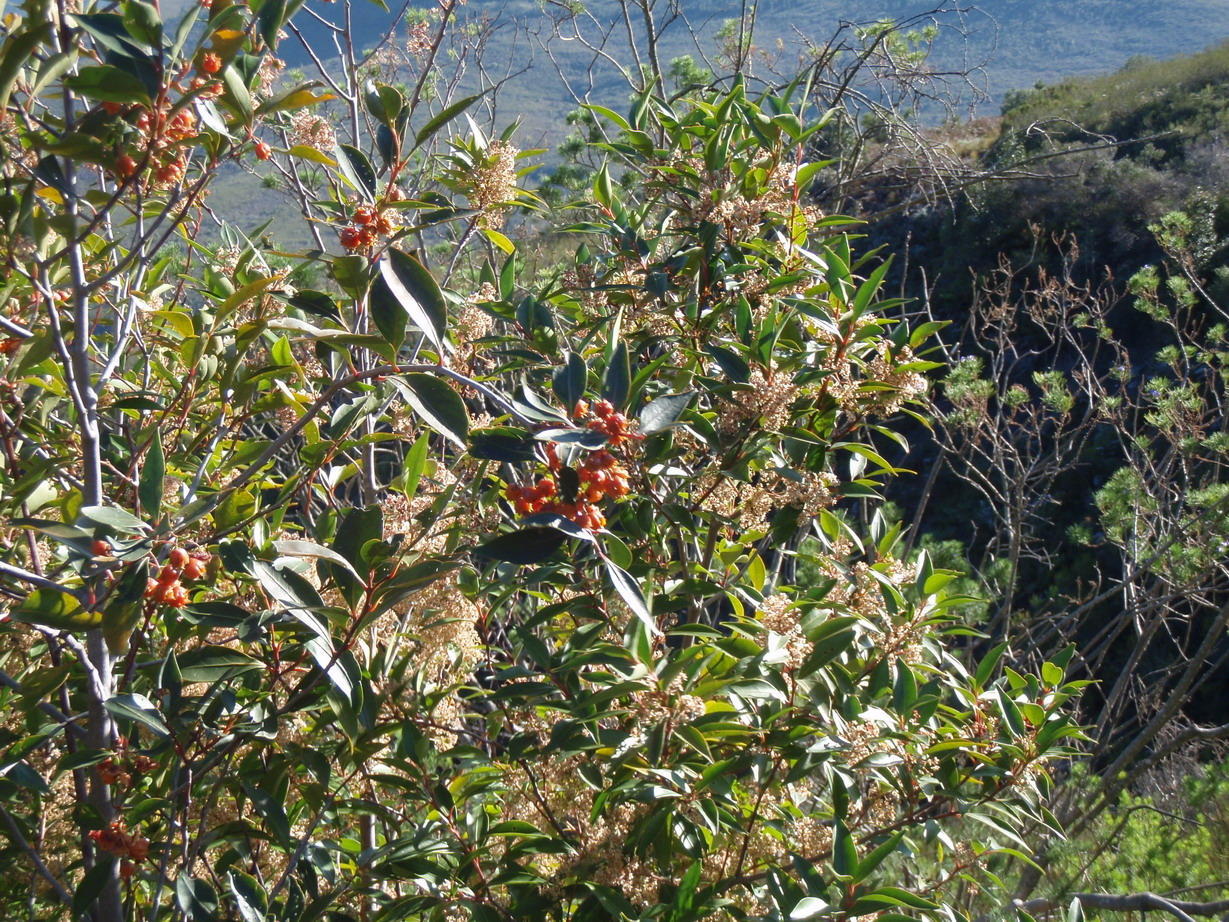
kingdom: Plantae
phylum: Tracheophyta
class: Magnoliopsida
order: Celastrales
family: Celastraceae
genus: Pterocelastrus
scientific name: Pterocelastrus rostratus
